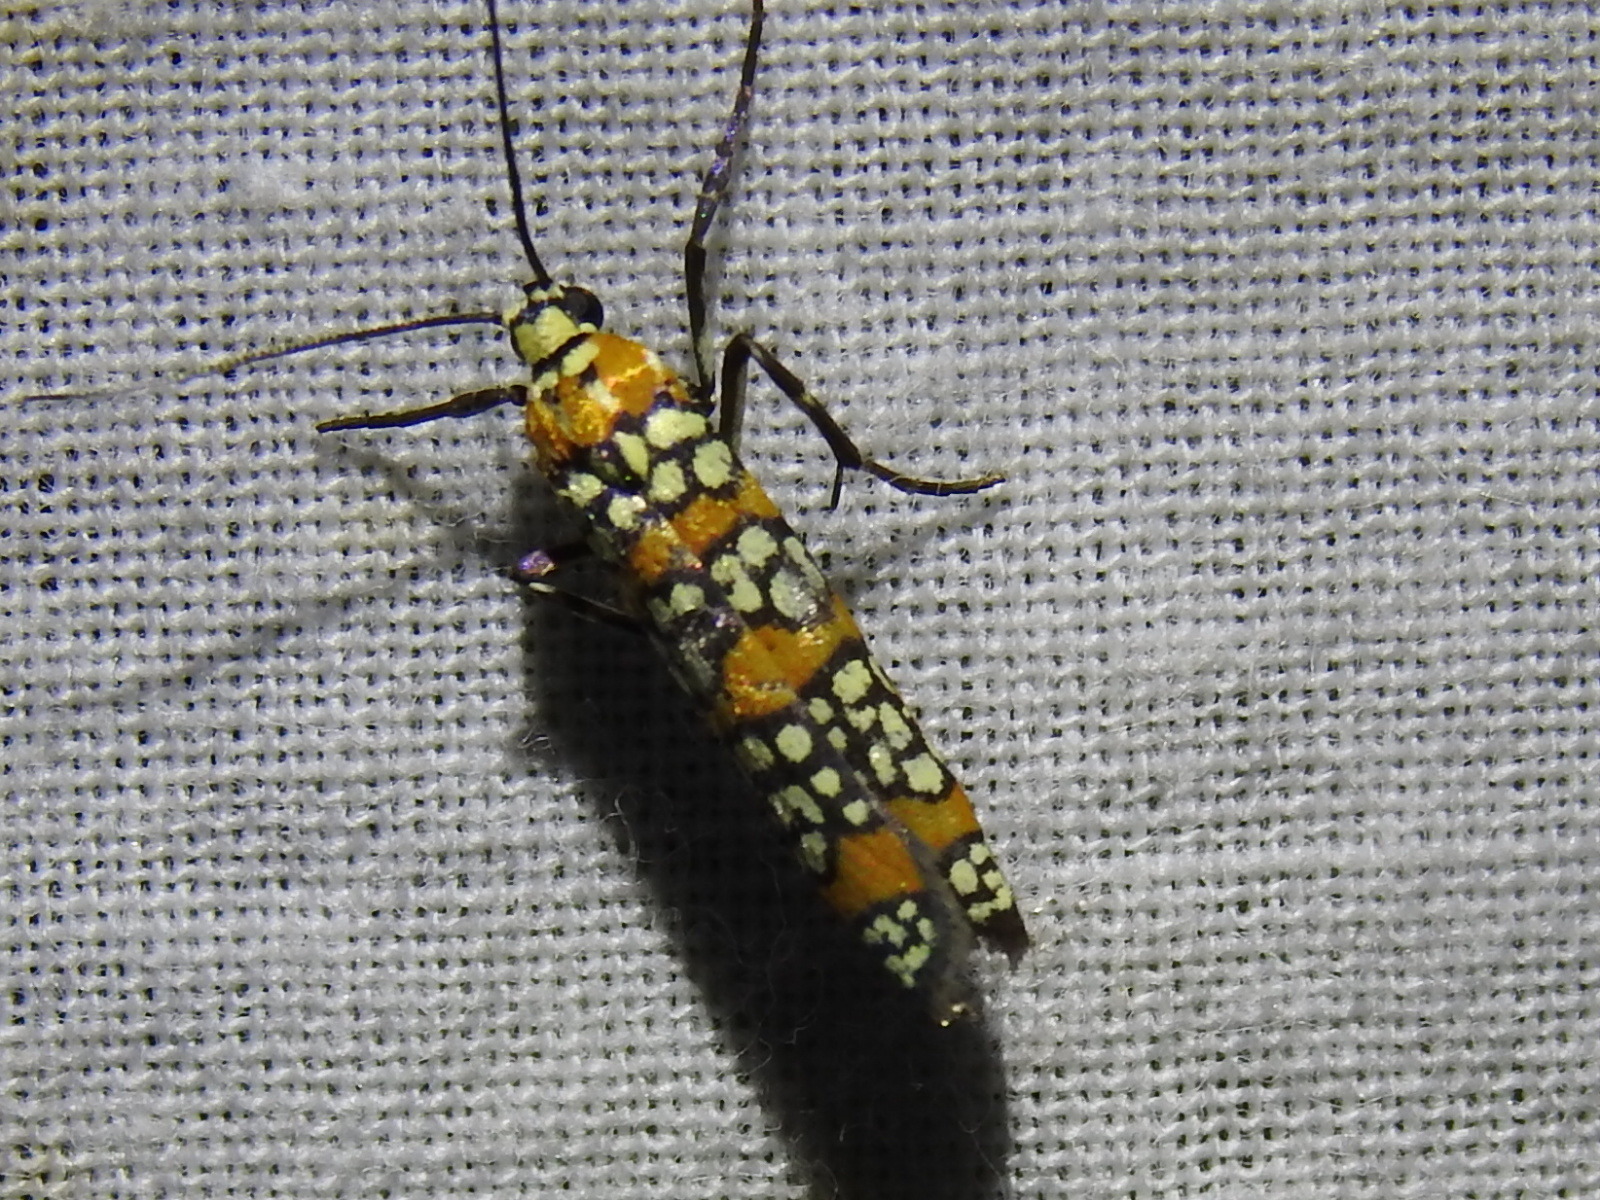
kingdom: Animalia
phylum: Arthropoda
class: Insecta
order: Lepidoptera
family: Attevidae
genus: Atteva
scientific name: Atteva punctella
